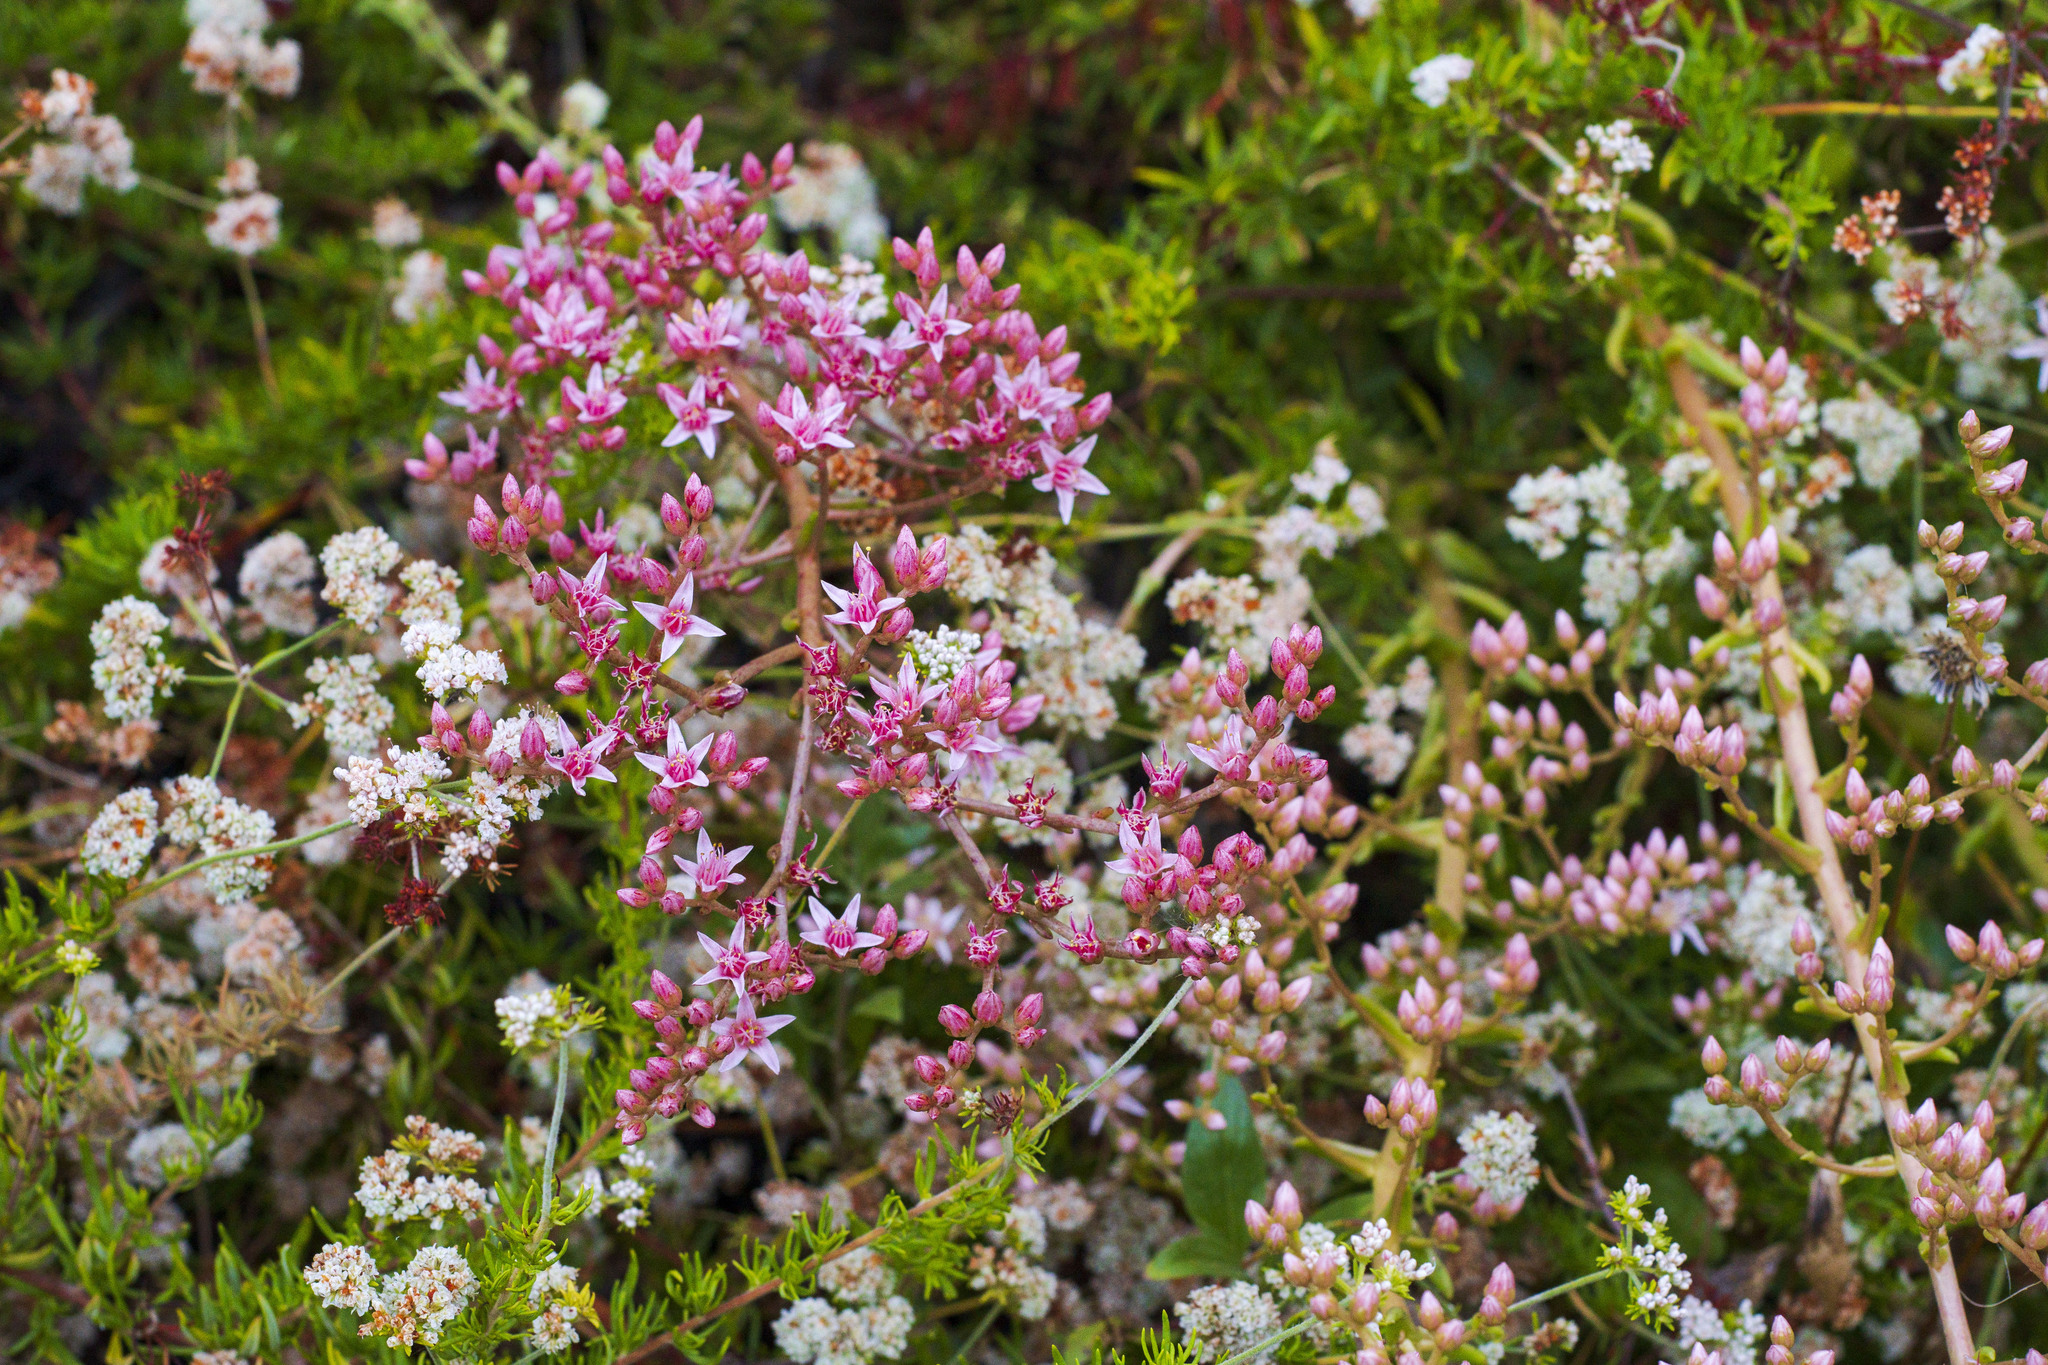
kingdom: Plantae
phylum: Tracheophyta
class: Magnoliopsida
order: Saxifragales
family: Crassulaceae
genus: Dudleya
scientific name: Dudleya viscida
